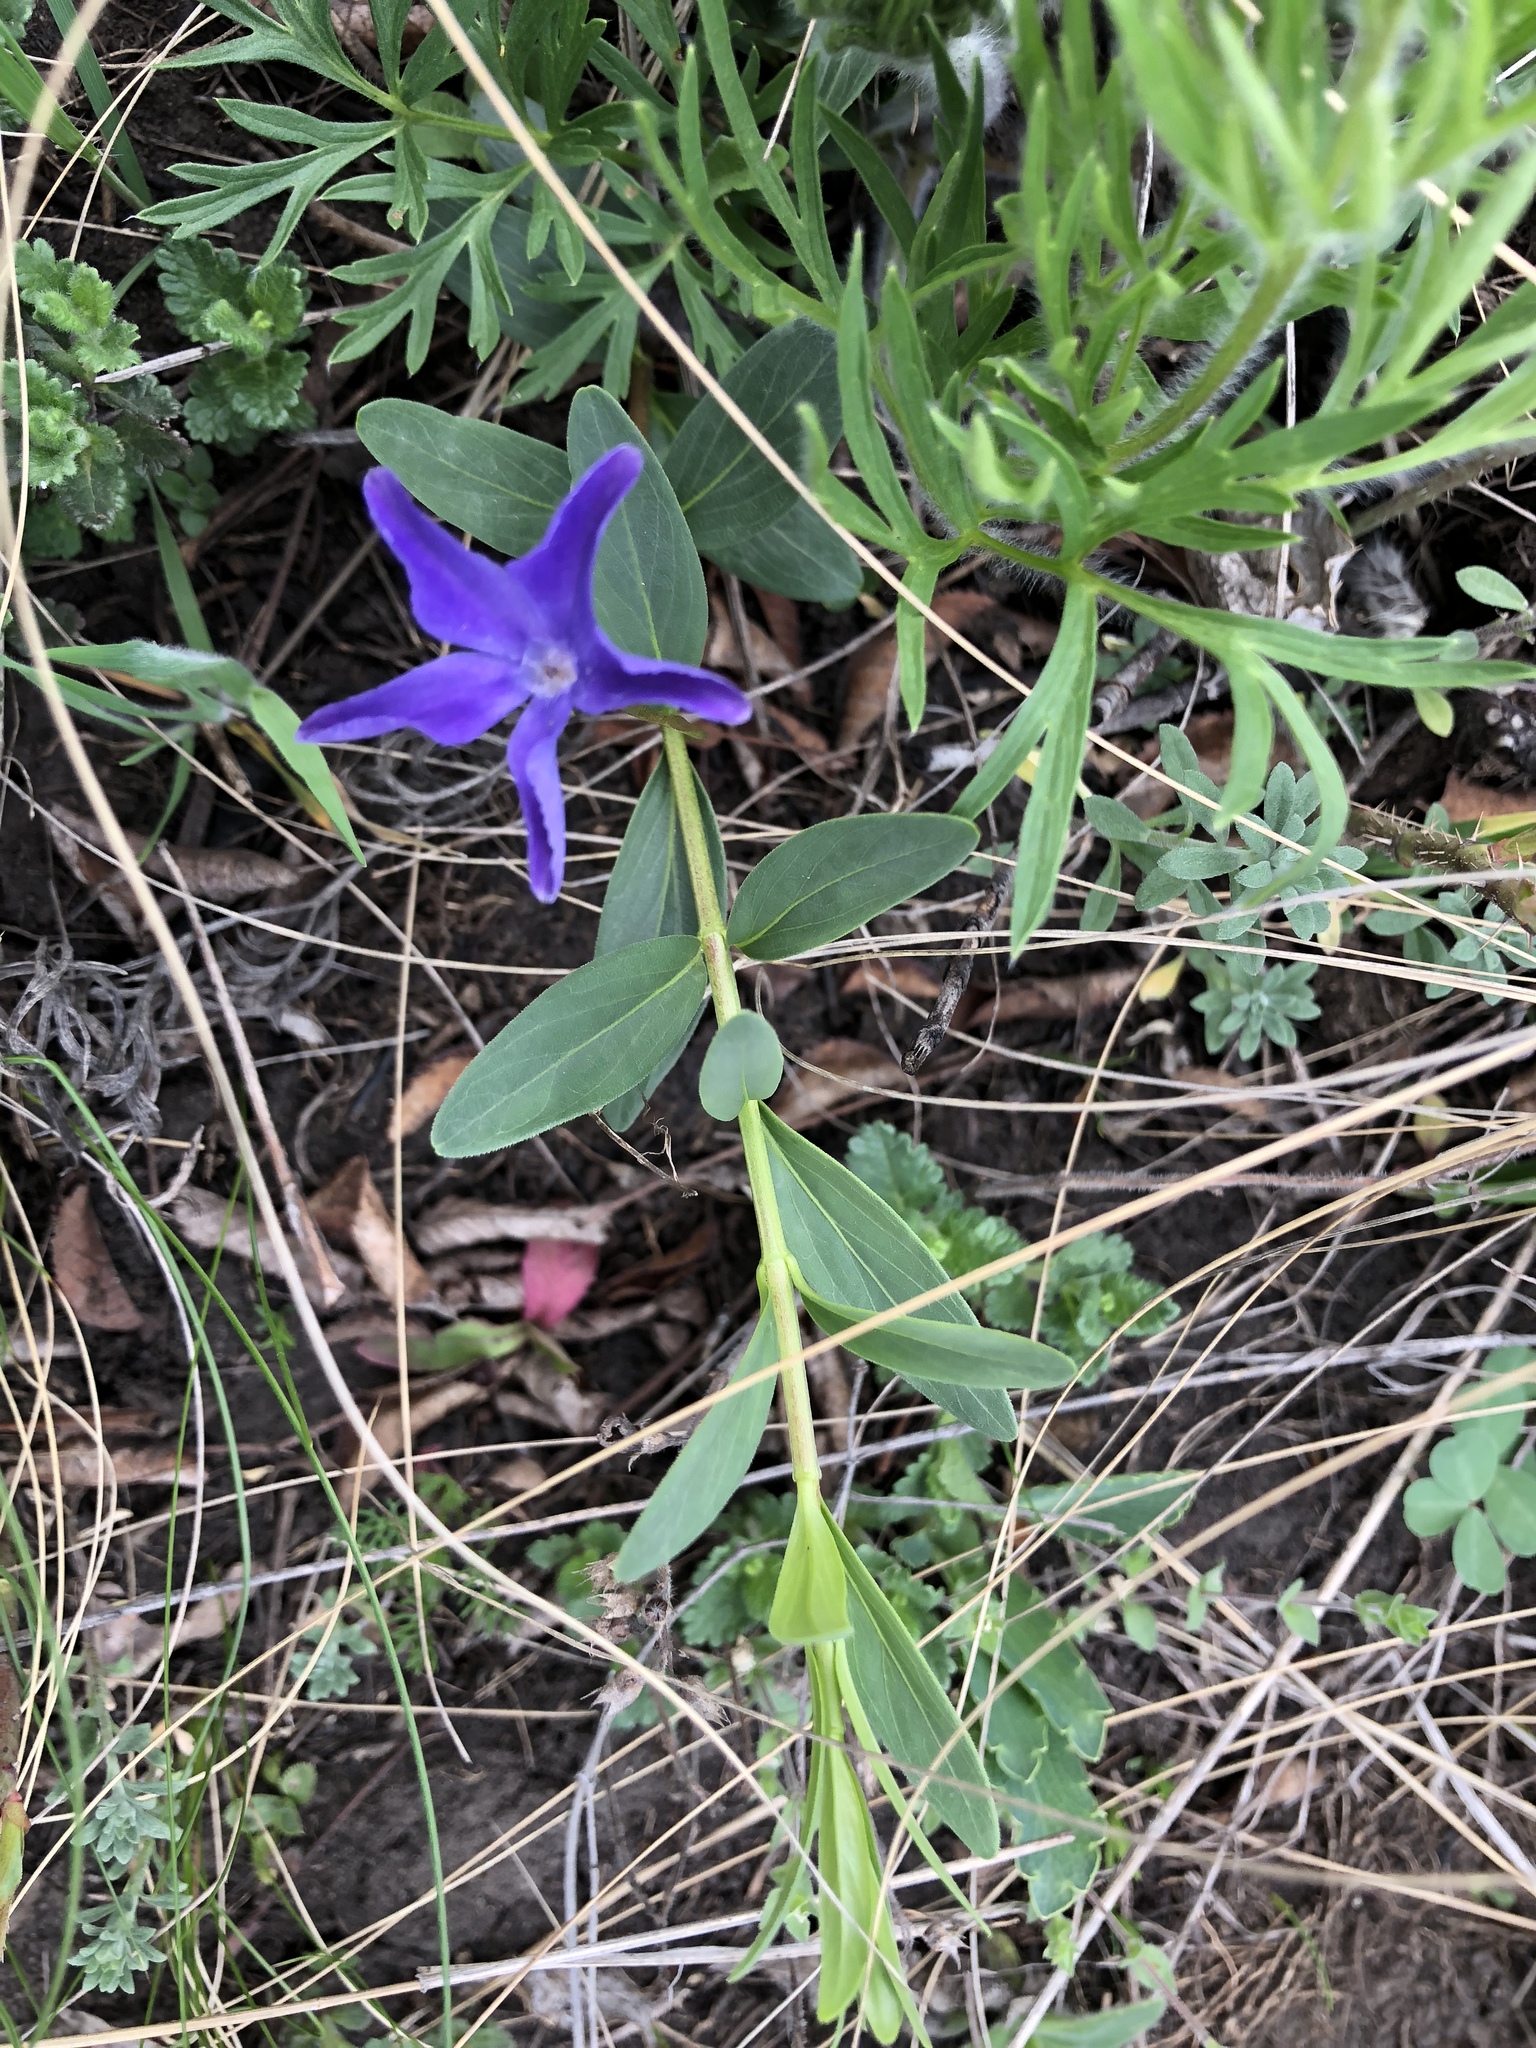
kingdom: Plantae
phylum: Tracheophyta
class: Magnoliopsida
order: Gentianales
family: Apocynaceae
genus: Vinca
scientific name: Vinca herbacea
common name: Herbaceous periwinkle
